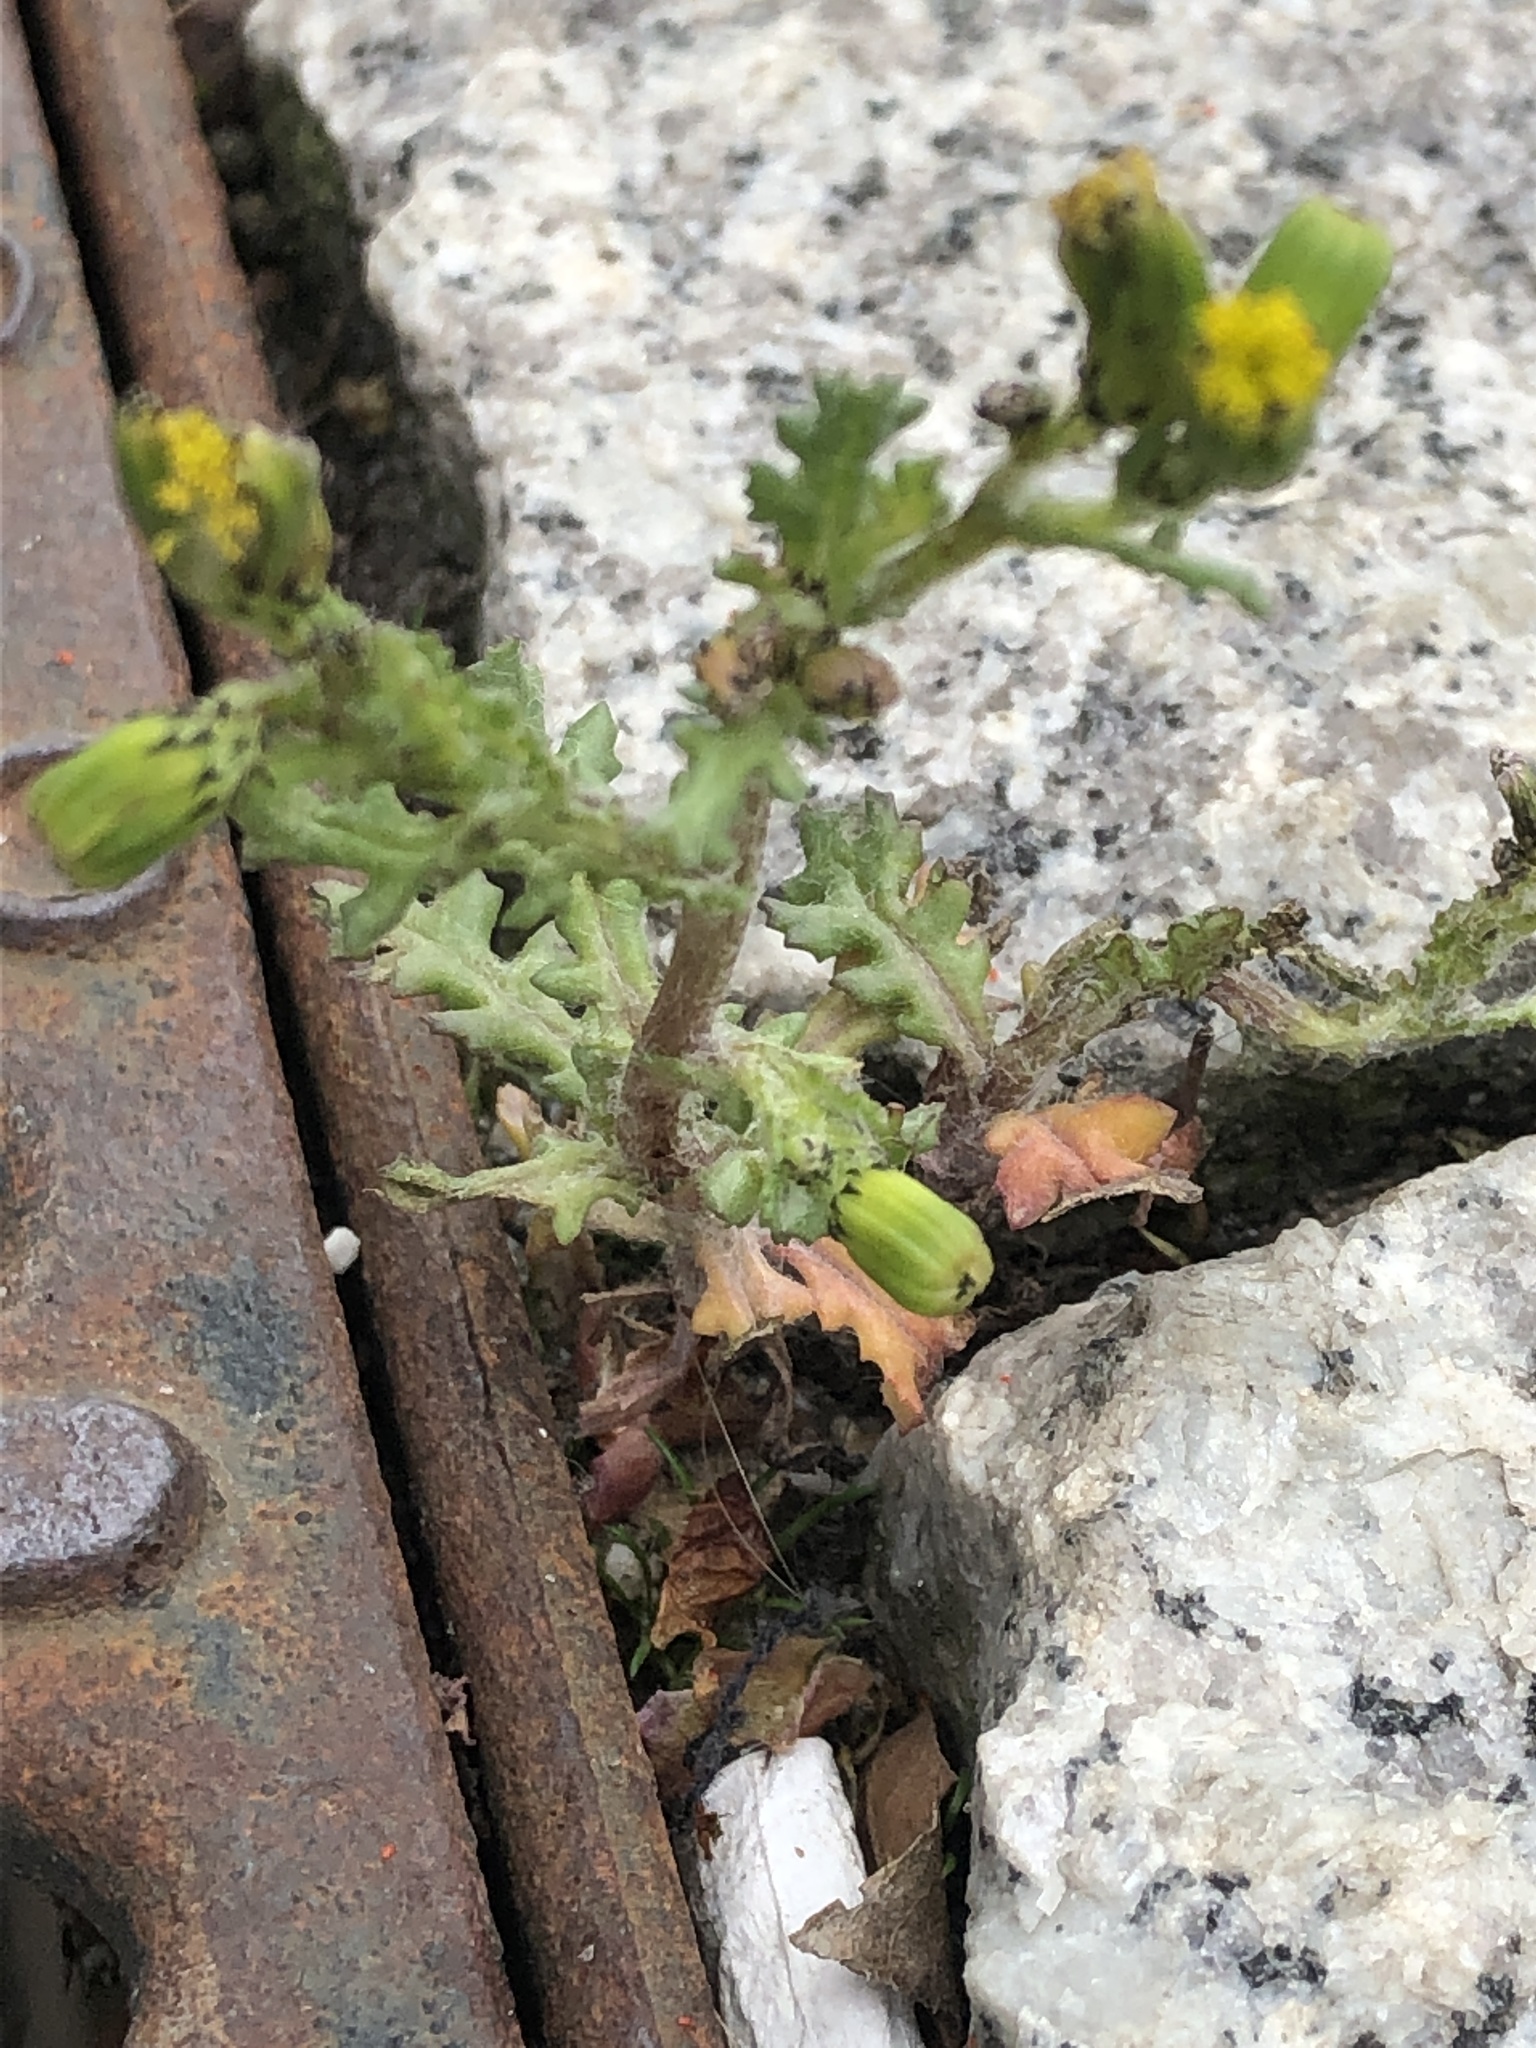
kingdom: Plantae
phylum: Tracheophyta
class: Magnoliopsida
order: Asterales
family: Asteraceae
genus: Senecio
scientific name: Senecio vulgaris
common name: Old-man-in-the-spring
